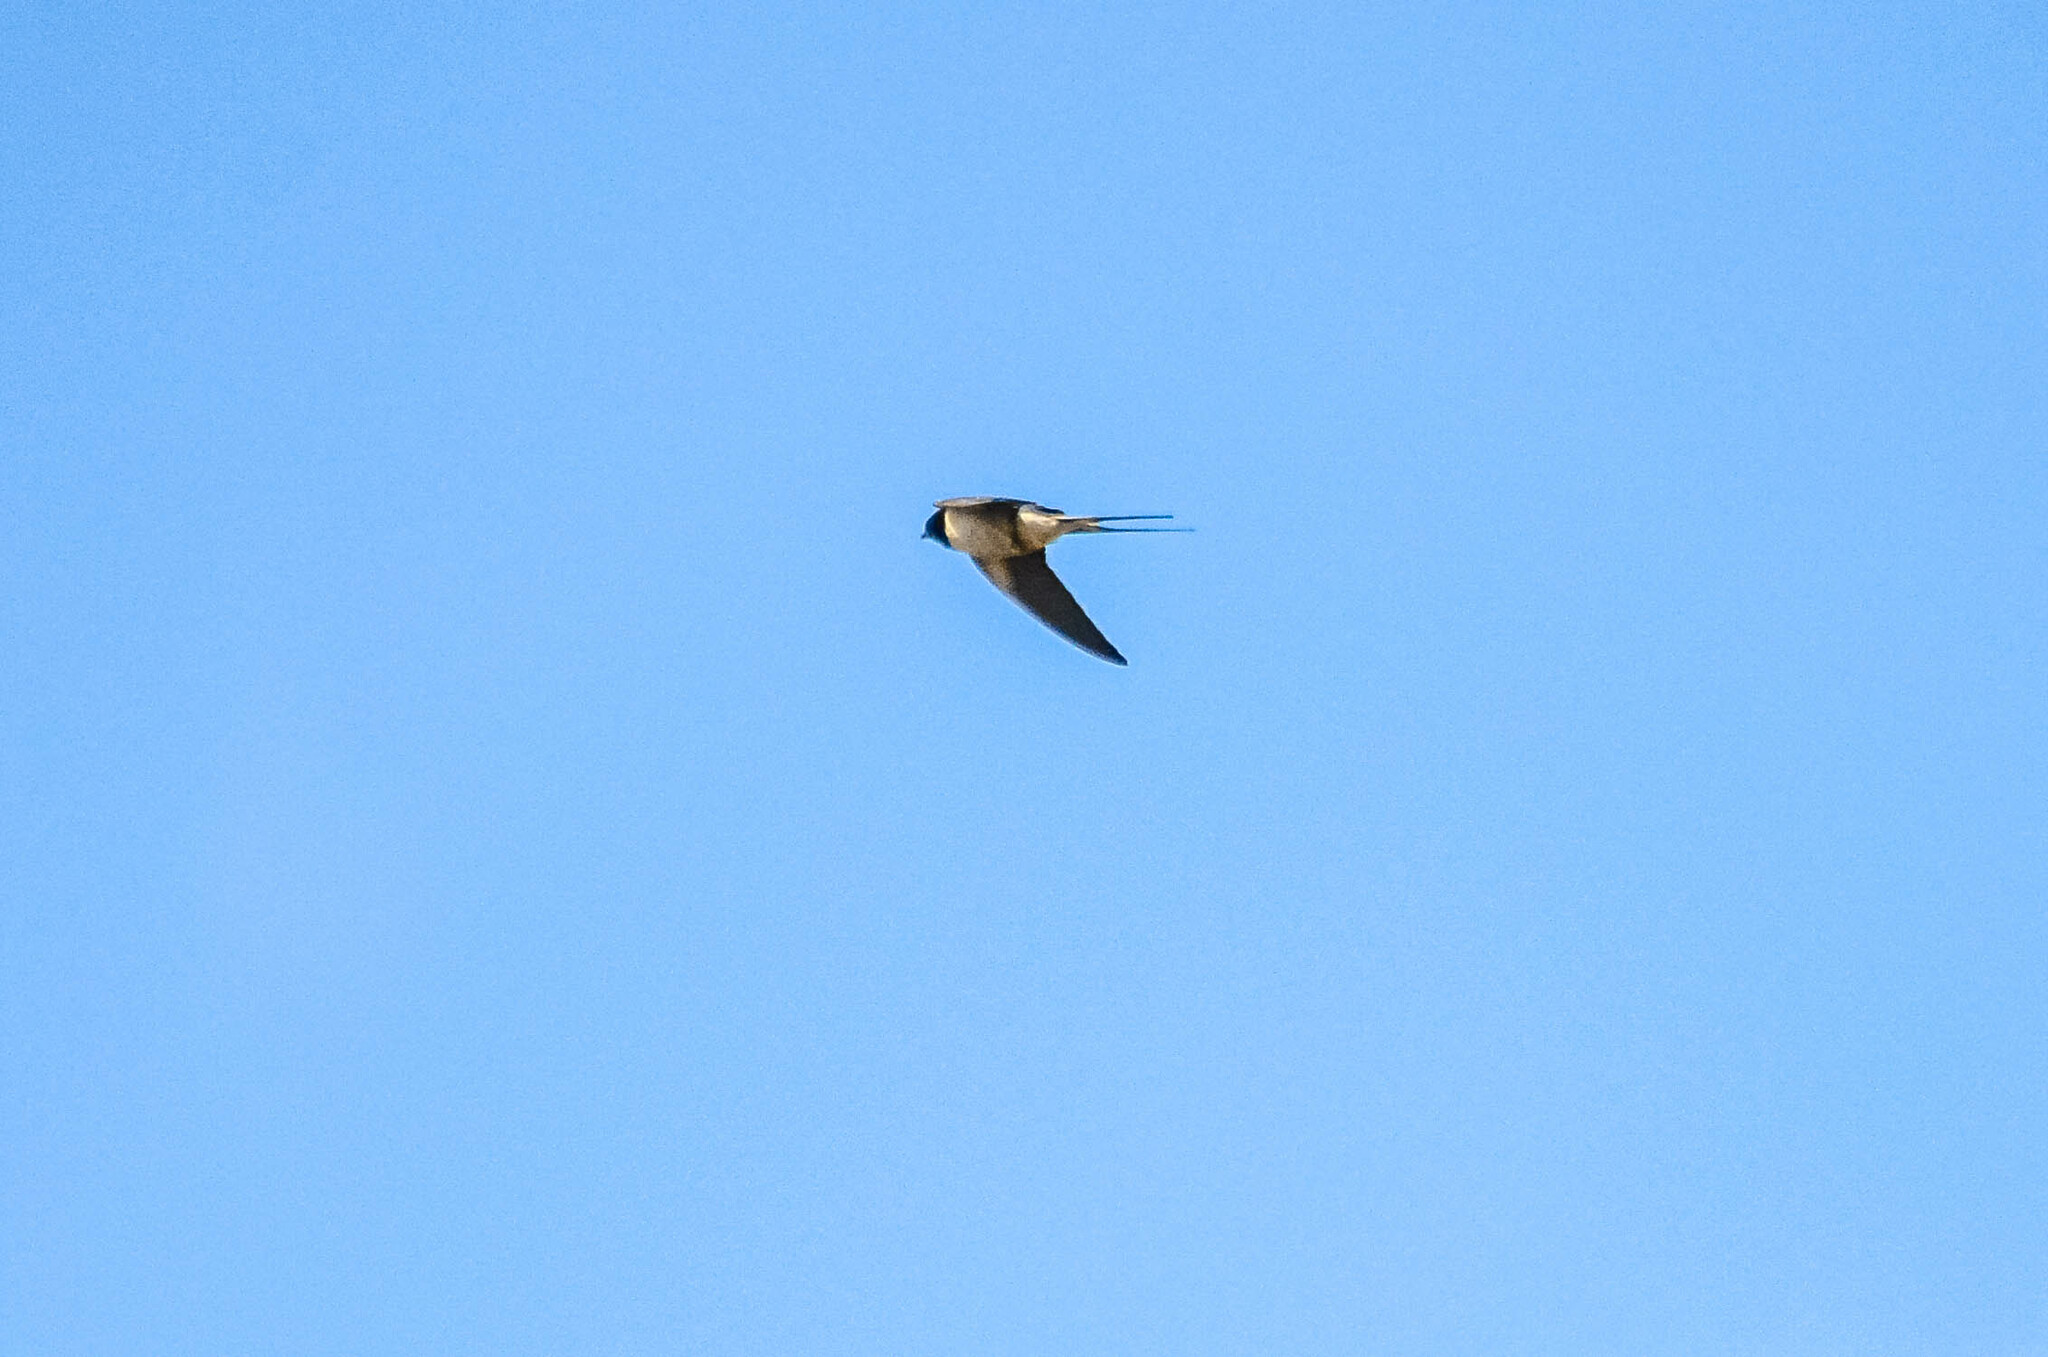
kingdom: Animalia
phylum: Chordata
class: Aves
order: Passeriformes
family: Hirundinidae
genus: Hirundo
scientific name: Hirundo rustica
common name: Barn swallow
